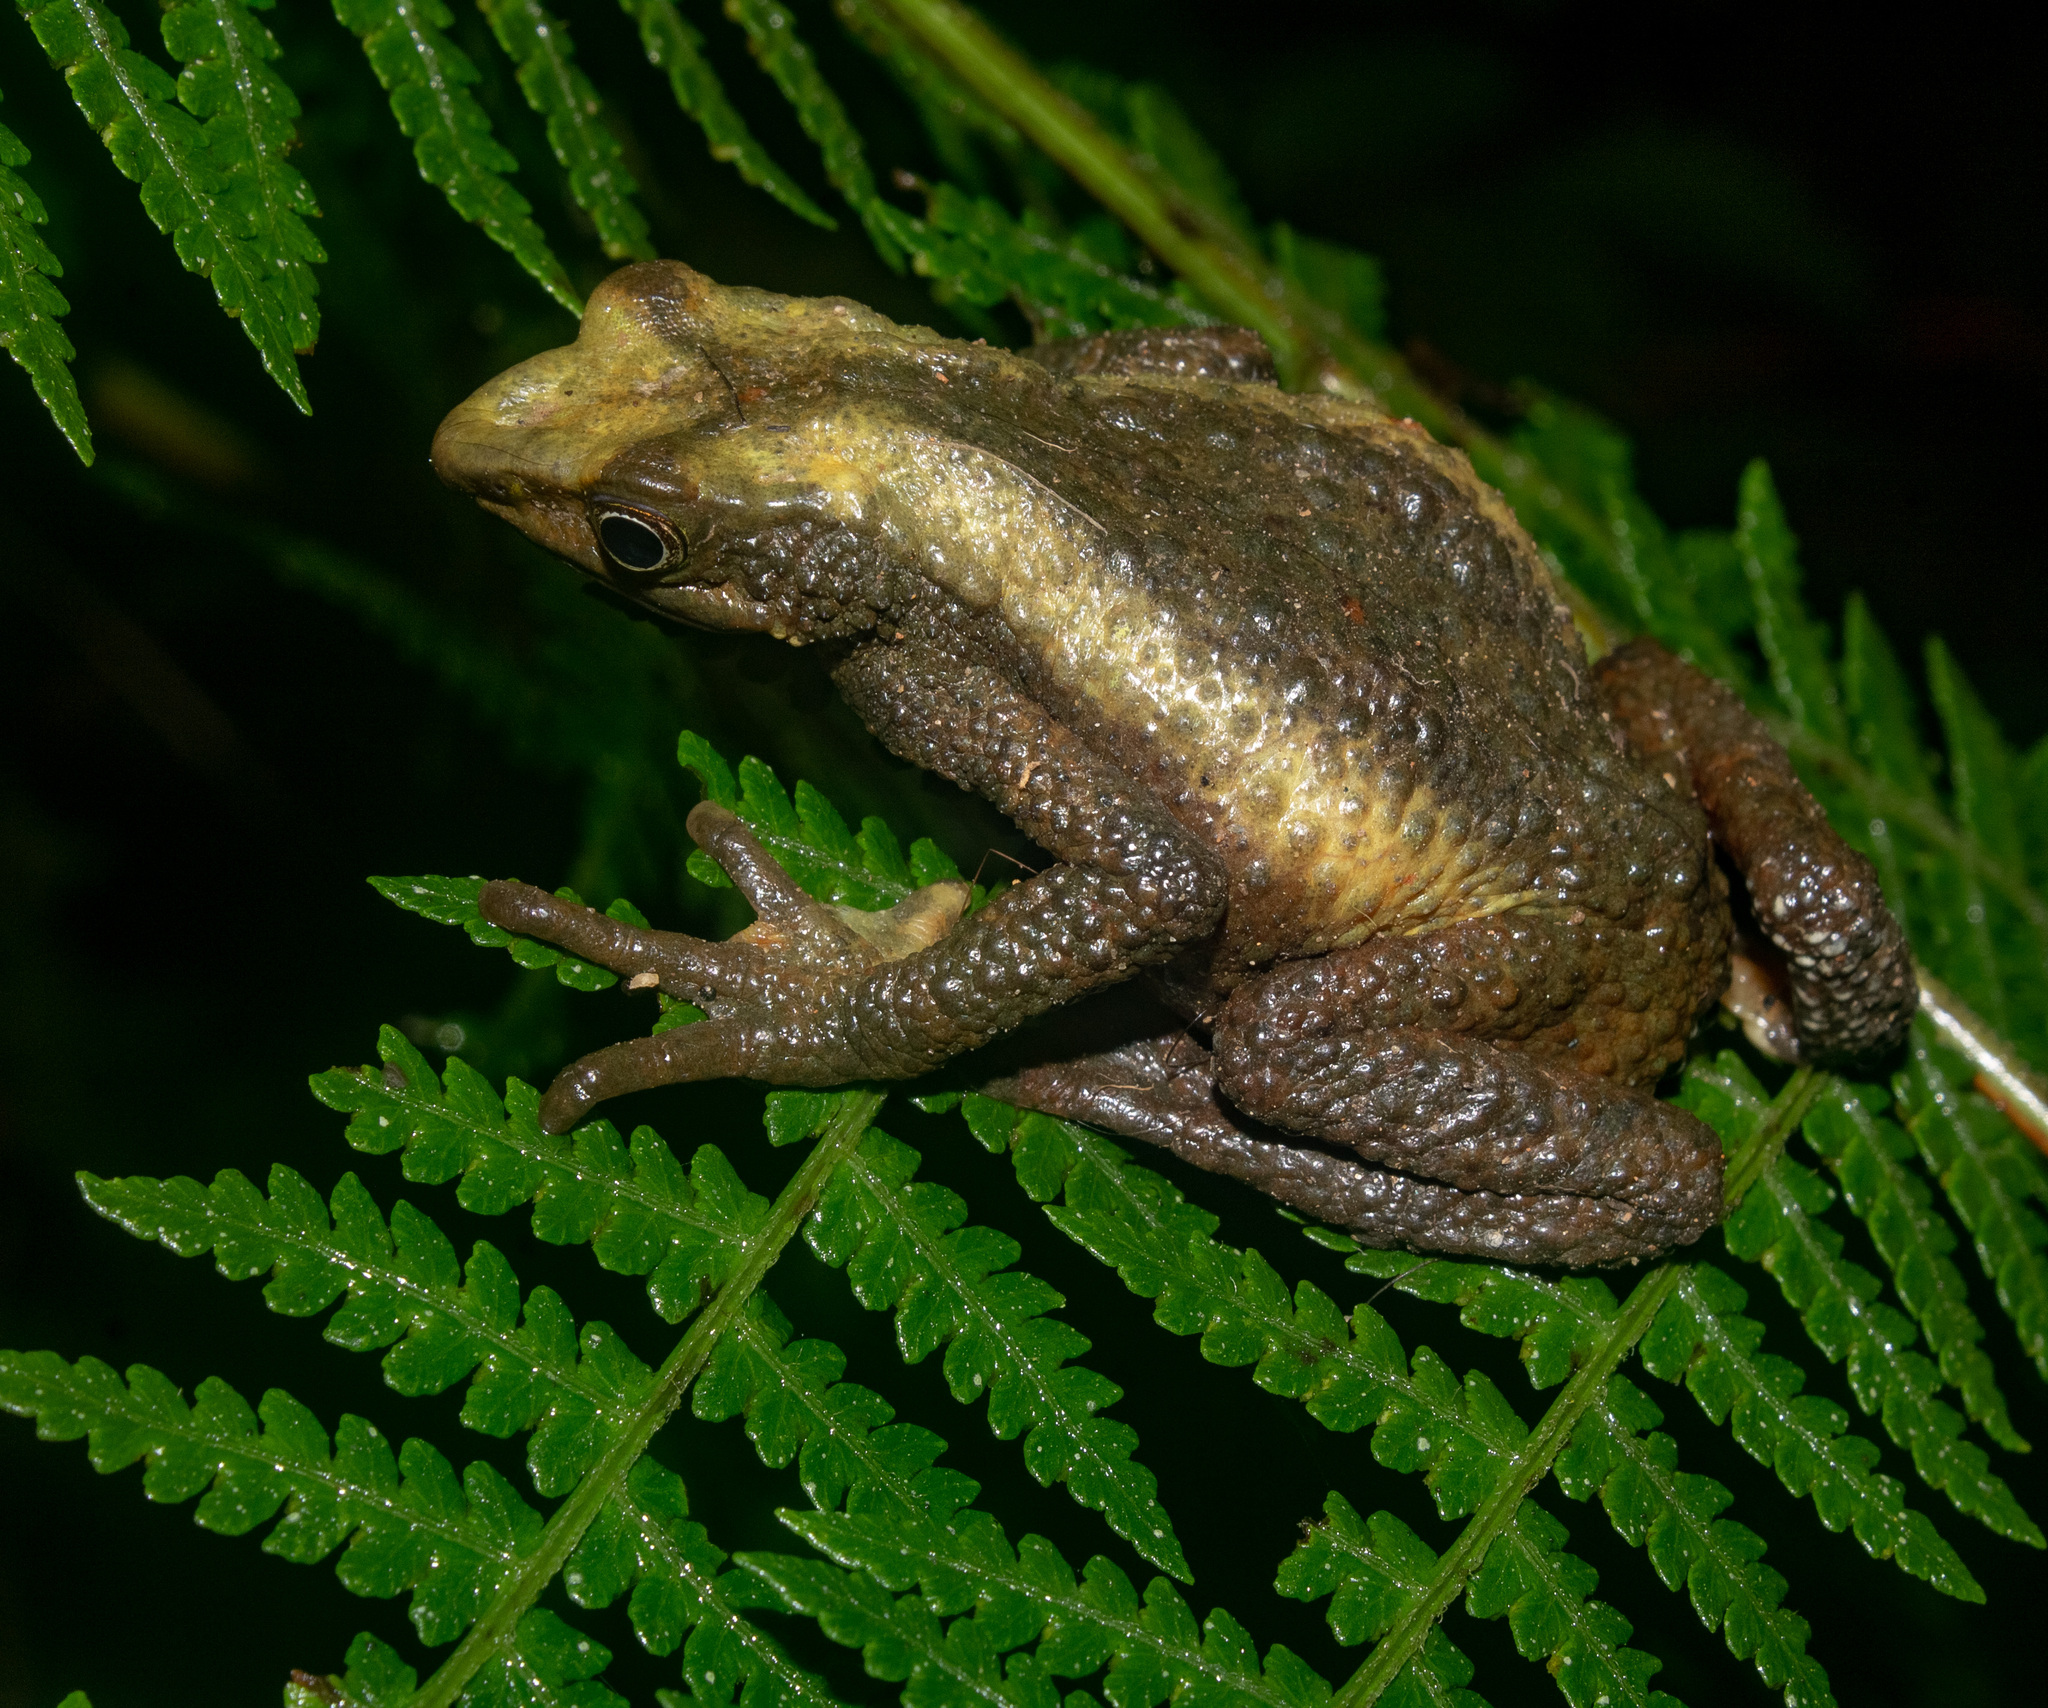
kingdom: Animalia
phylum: Chordata
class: Amphibia
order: Anura
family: Bufonidae
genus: Atelopus
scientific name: Atelopus laetissimus
